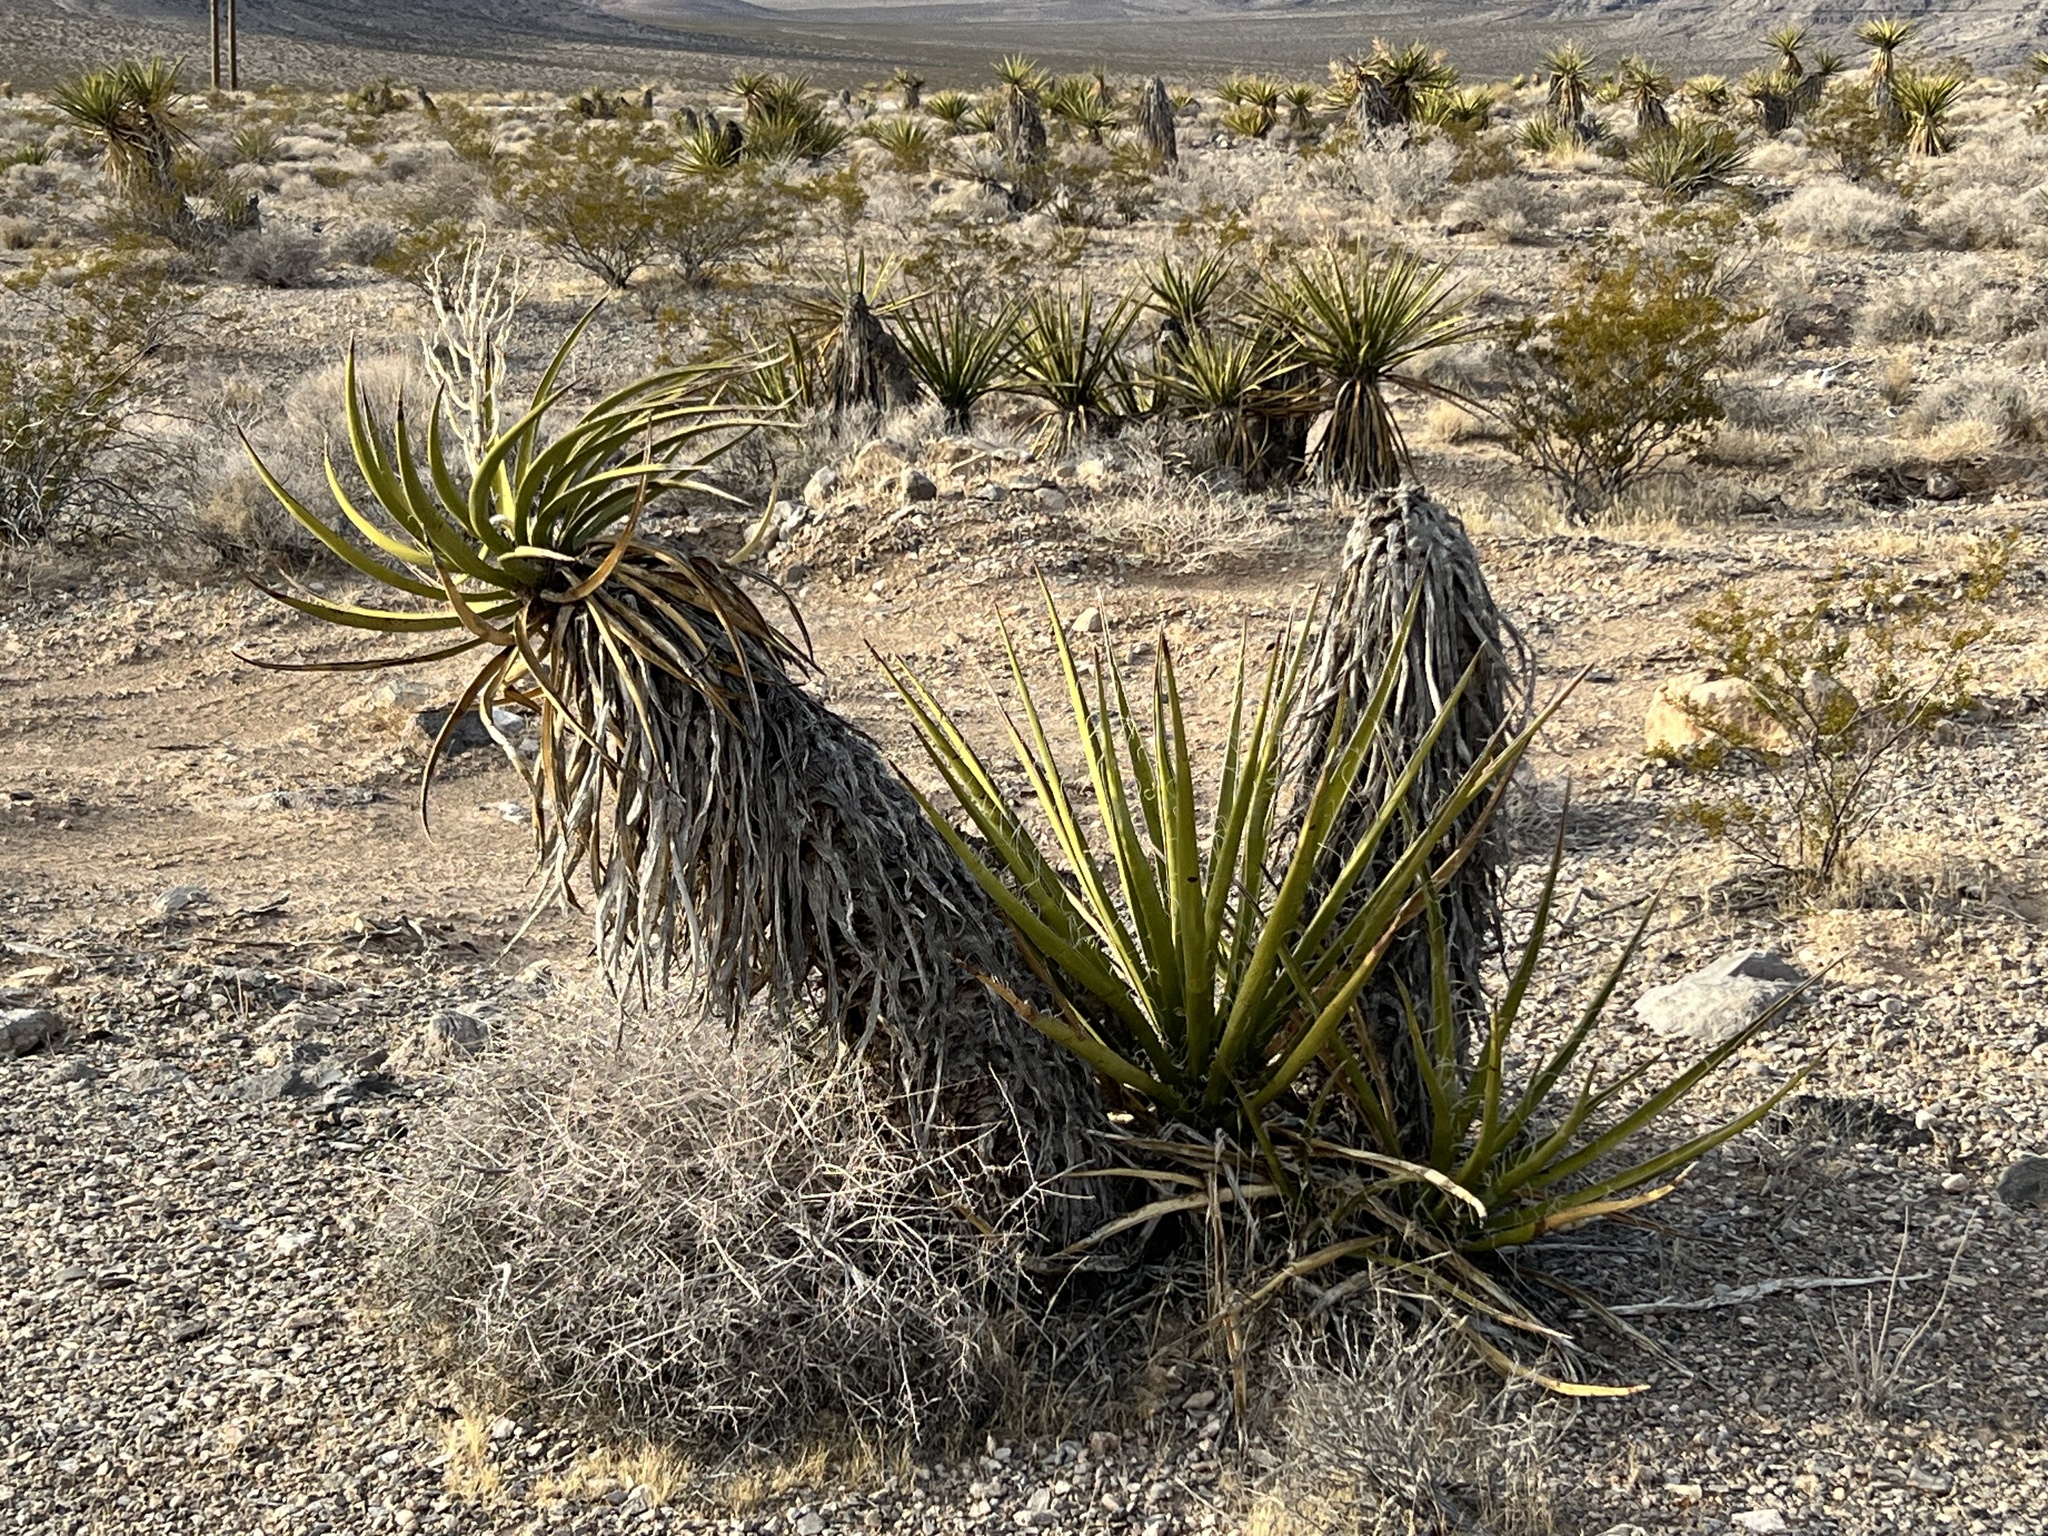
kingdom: Plantae
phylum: Tracheophyta
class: Liliopsida
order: Asparagales
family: Asparagaceae
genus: Yucca
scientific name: Yucca schidigera
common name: Mojave yucca
